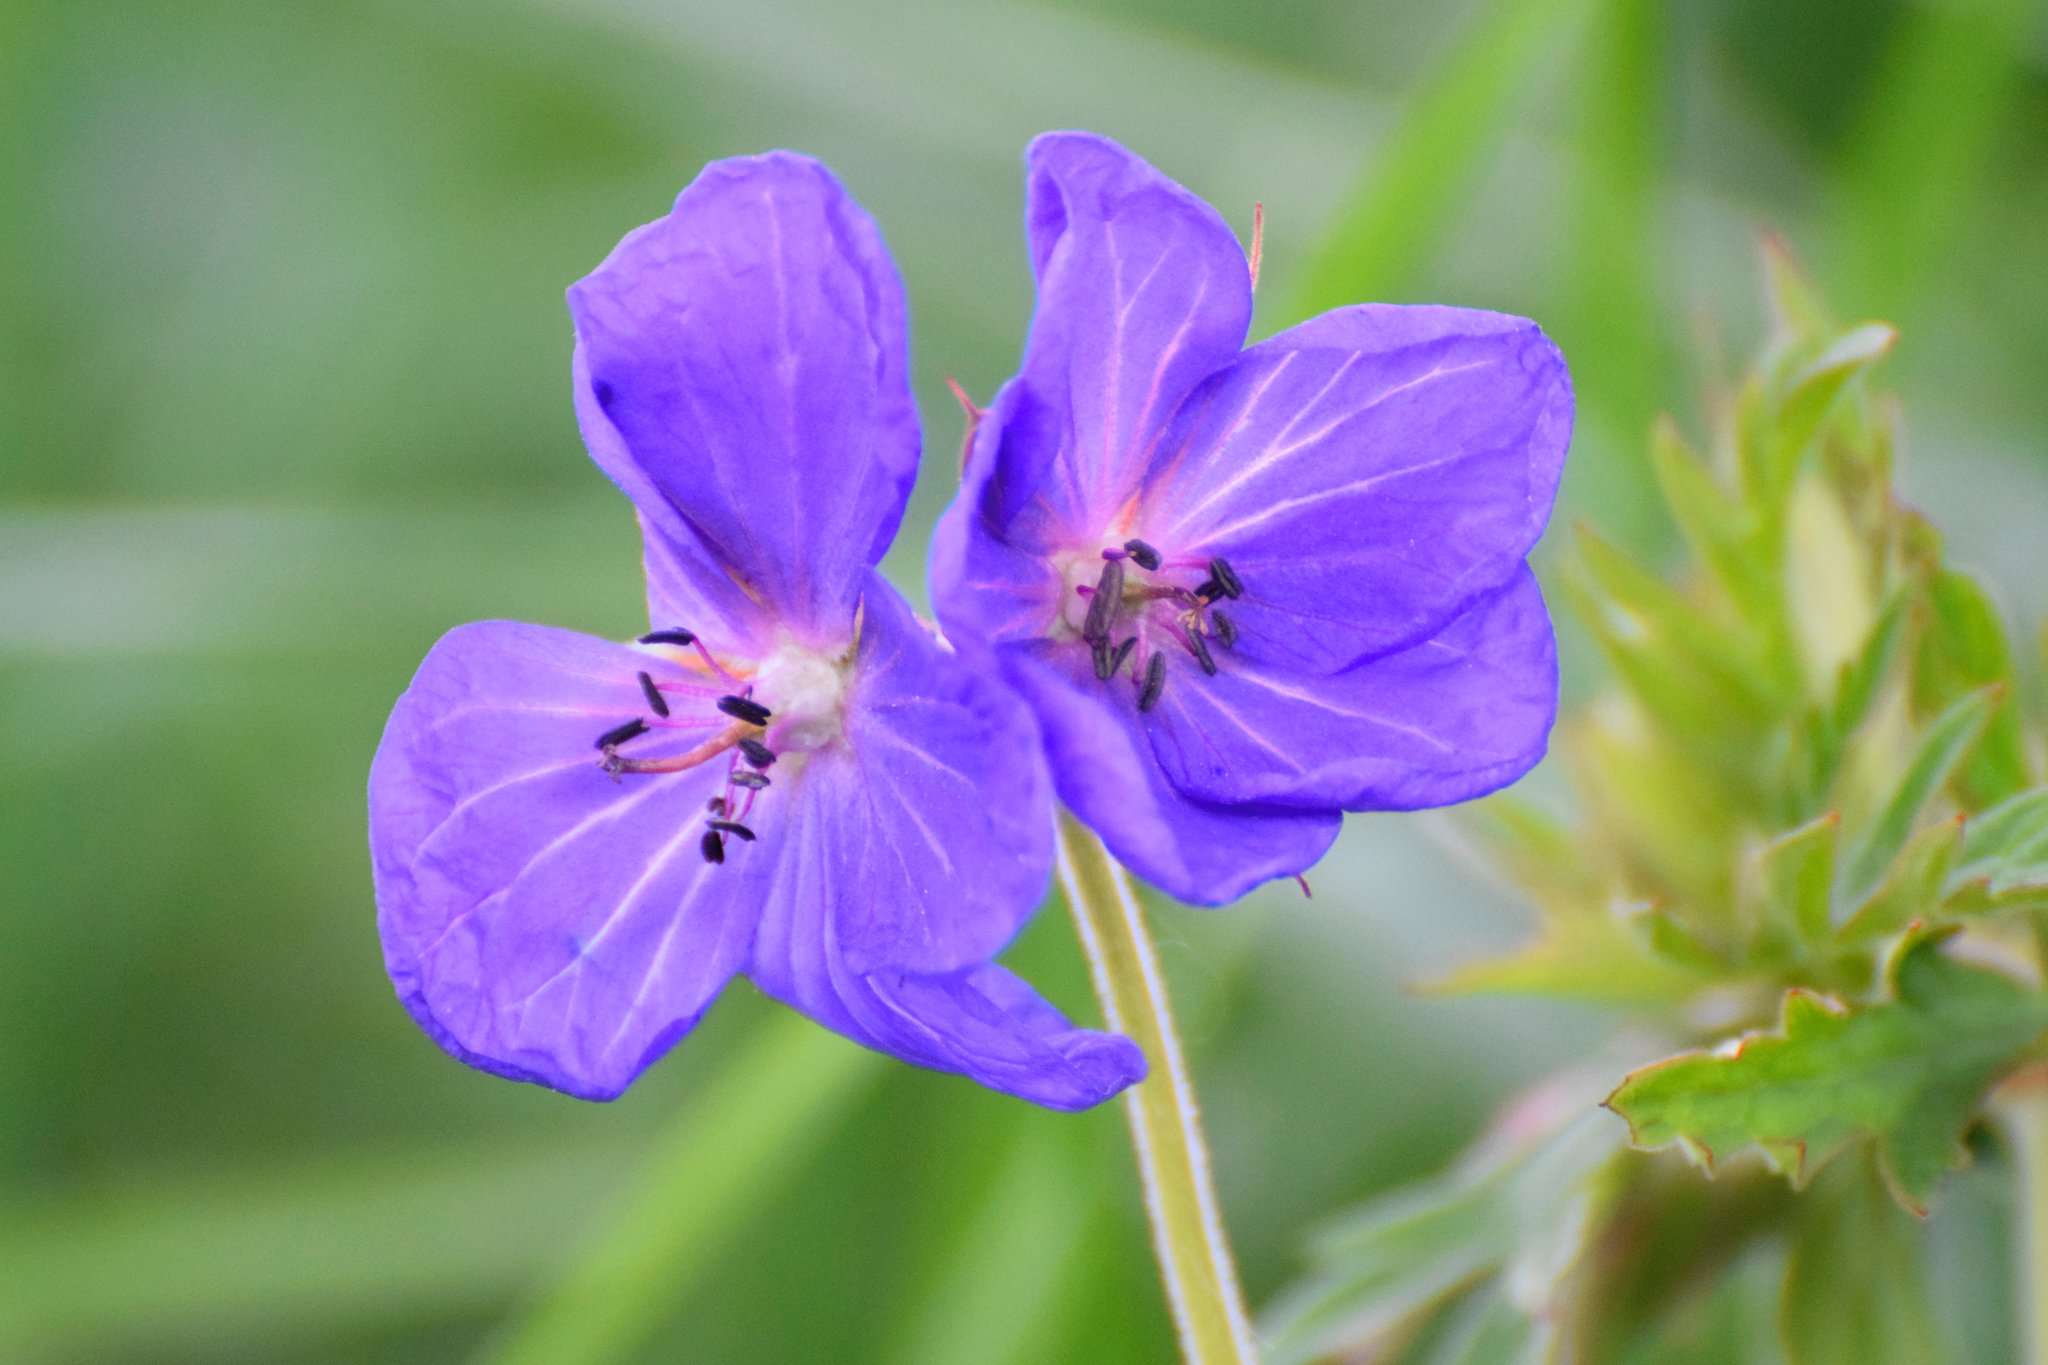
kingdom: Plantae
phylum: Tracheophyta
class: Magnoliopsida
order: Geraniales
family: Geraniaceae
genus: Geranium
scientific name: Geranium pratense
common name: Meadow crane's-bill
